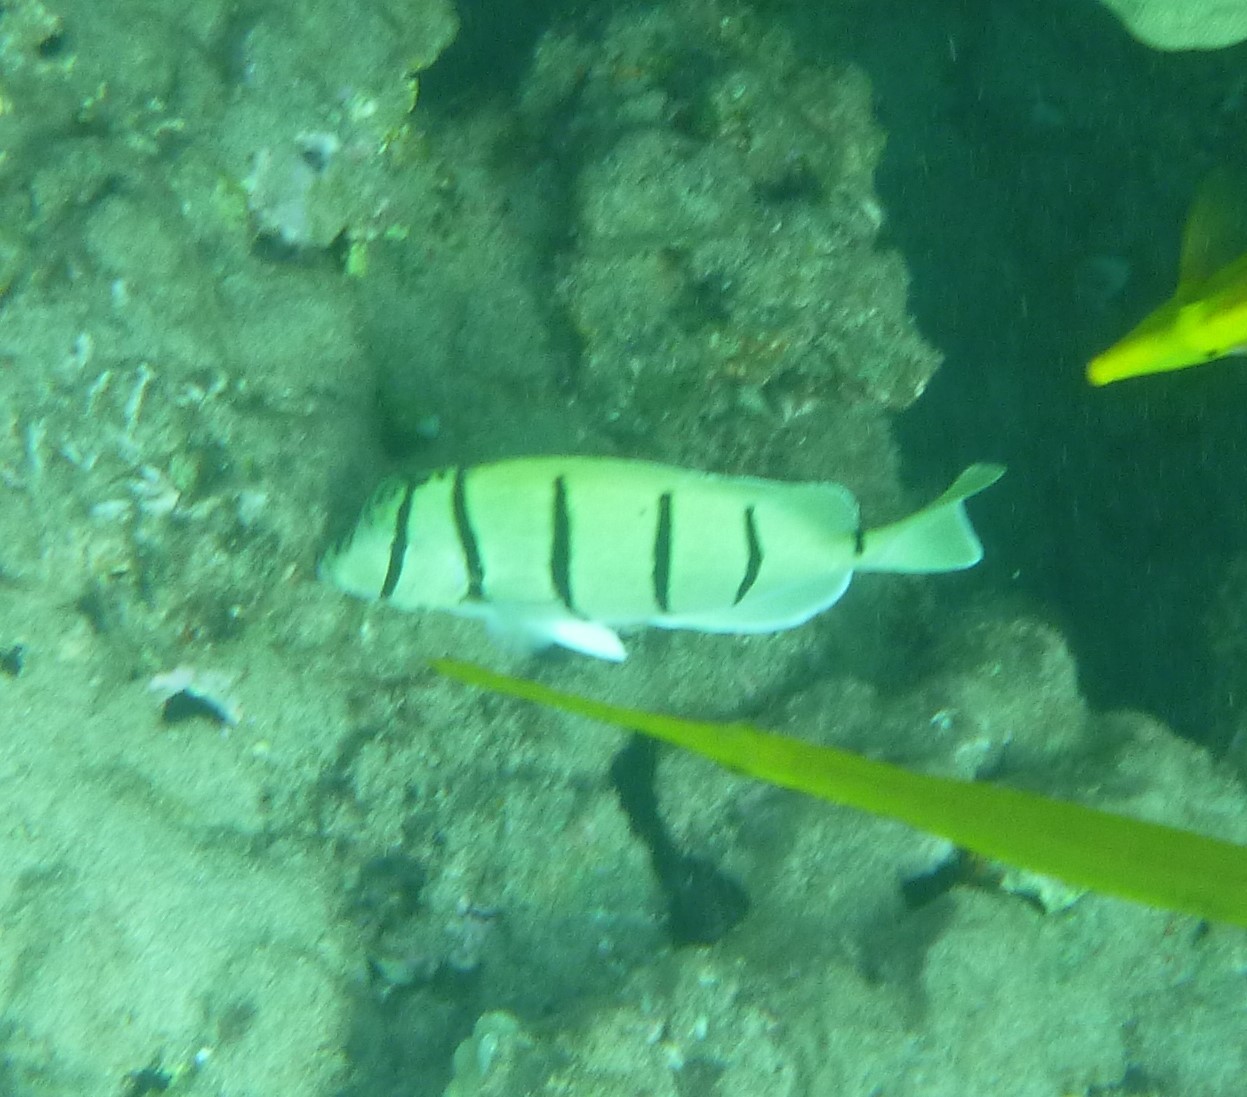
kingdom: Animalia
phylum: Chordata
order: Perciformes
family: Acanthuridae
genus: Acanthurus
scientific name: Acanthurus triostegus
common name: Convict surgeonfish
